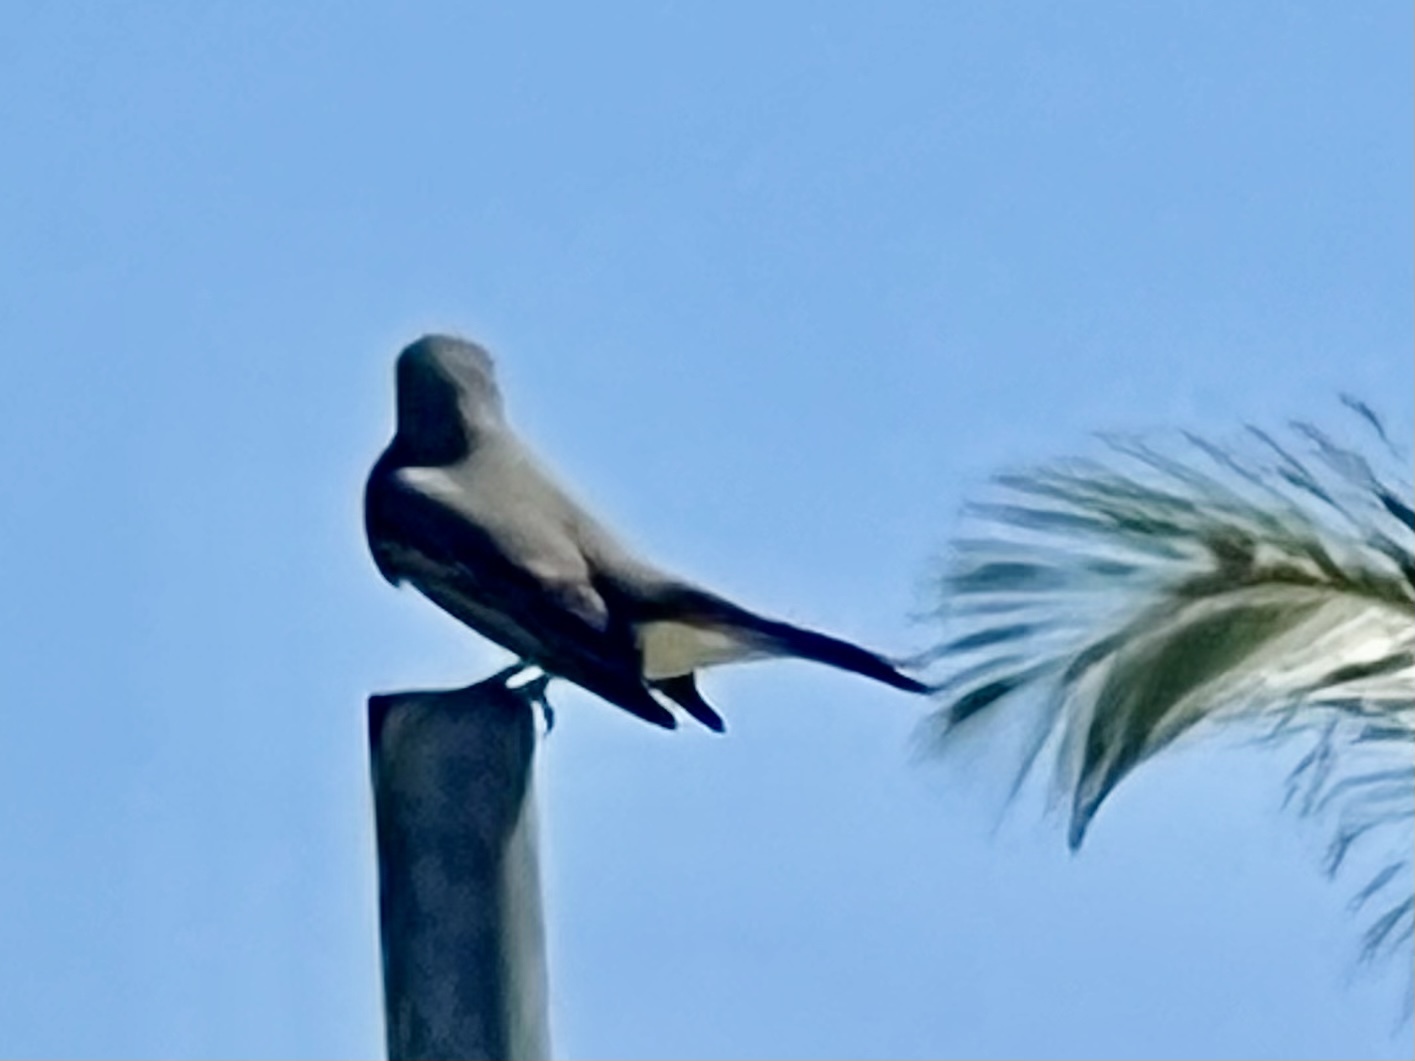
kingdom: Animalia
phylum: Chordata
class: Aves
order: Passeriformes
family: Tyrannidae
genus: Tyrannus
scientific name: Tyrannus melancholicus
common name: Tropical kingbird
